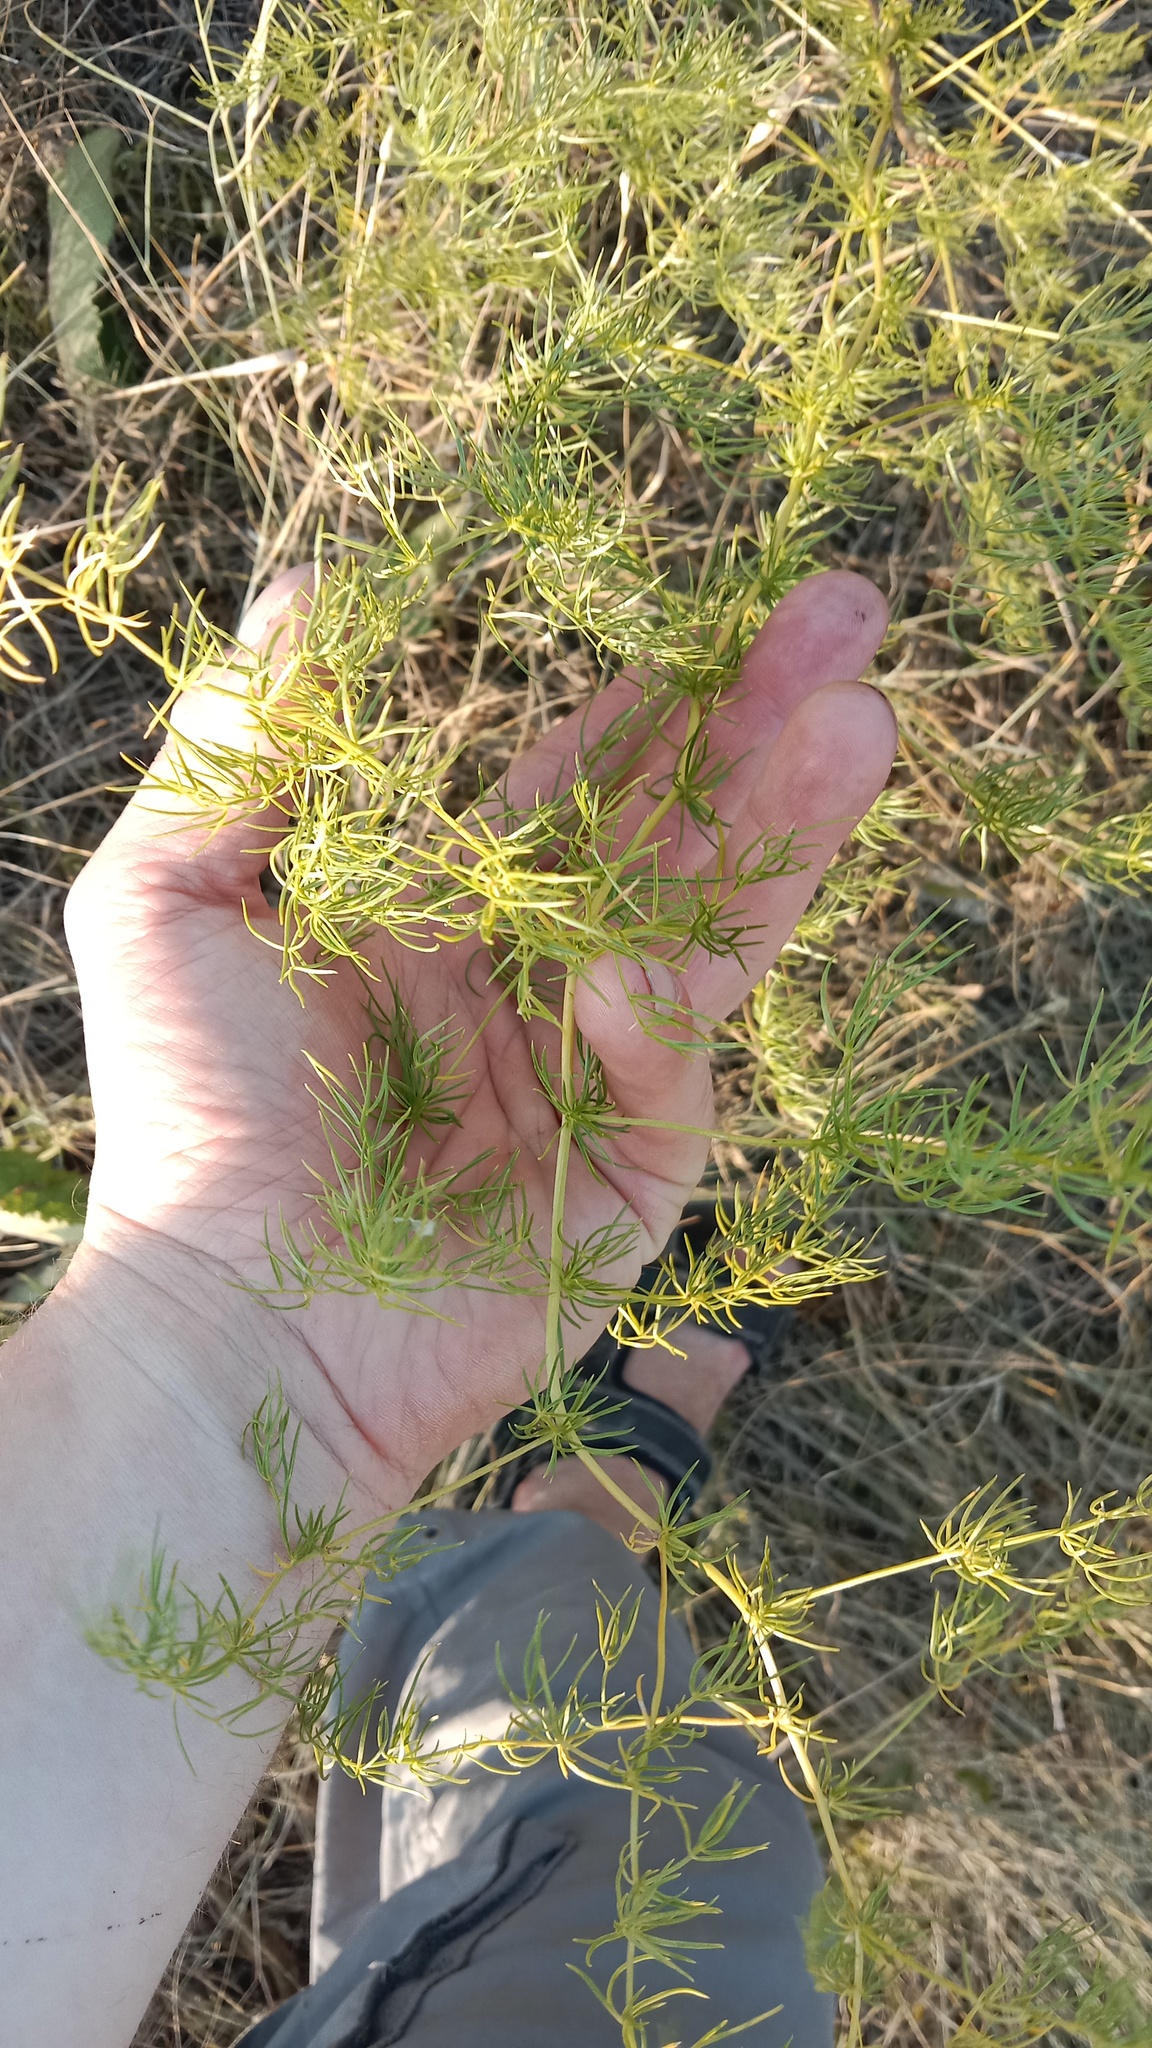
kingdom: Plantae
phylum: Tracheophyta
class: Liliopsida
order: Asparagales
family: Asparagaceae
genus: Asparagus
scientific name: Asparagus verticillatus
